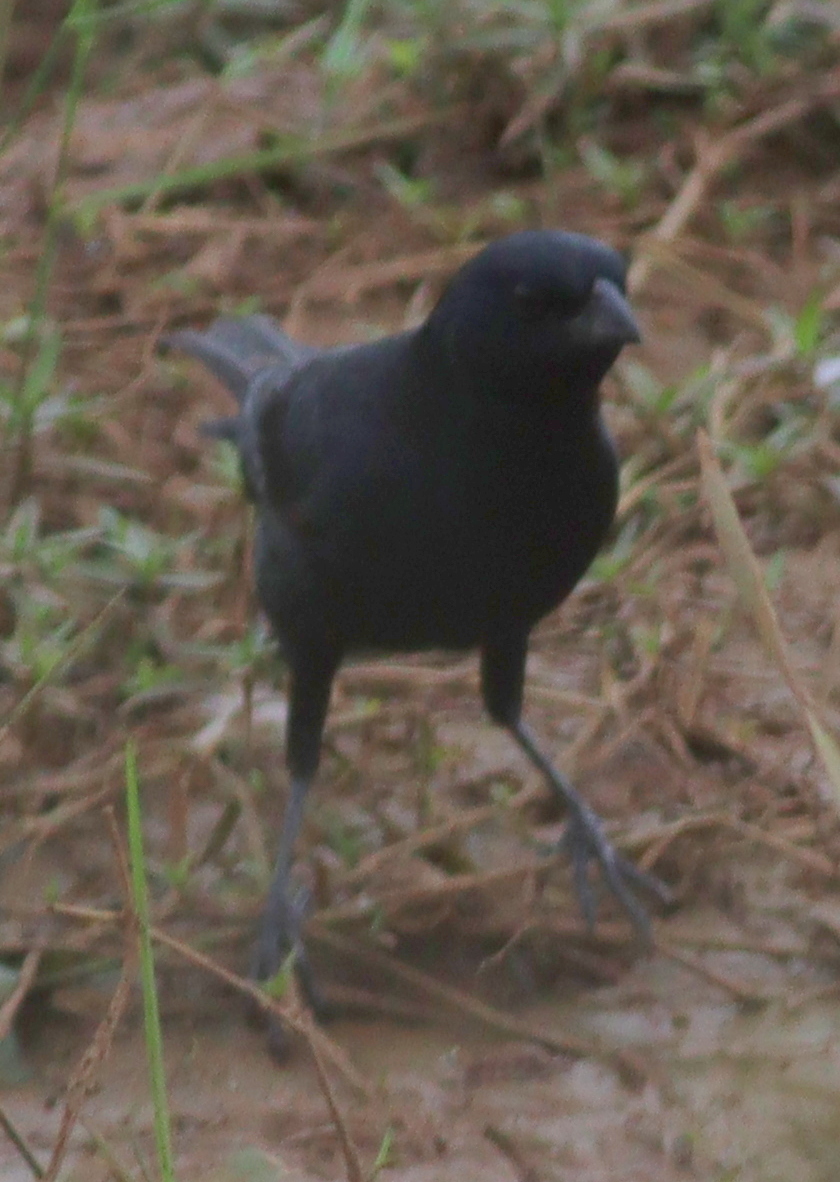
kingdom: Animalia
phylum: Chordata
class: Aves
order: Passeriformes
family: Icteridae
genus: Molothrus
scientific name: Molothrus rufoaxillaris
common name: Screaming cowbird
